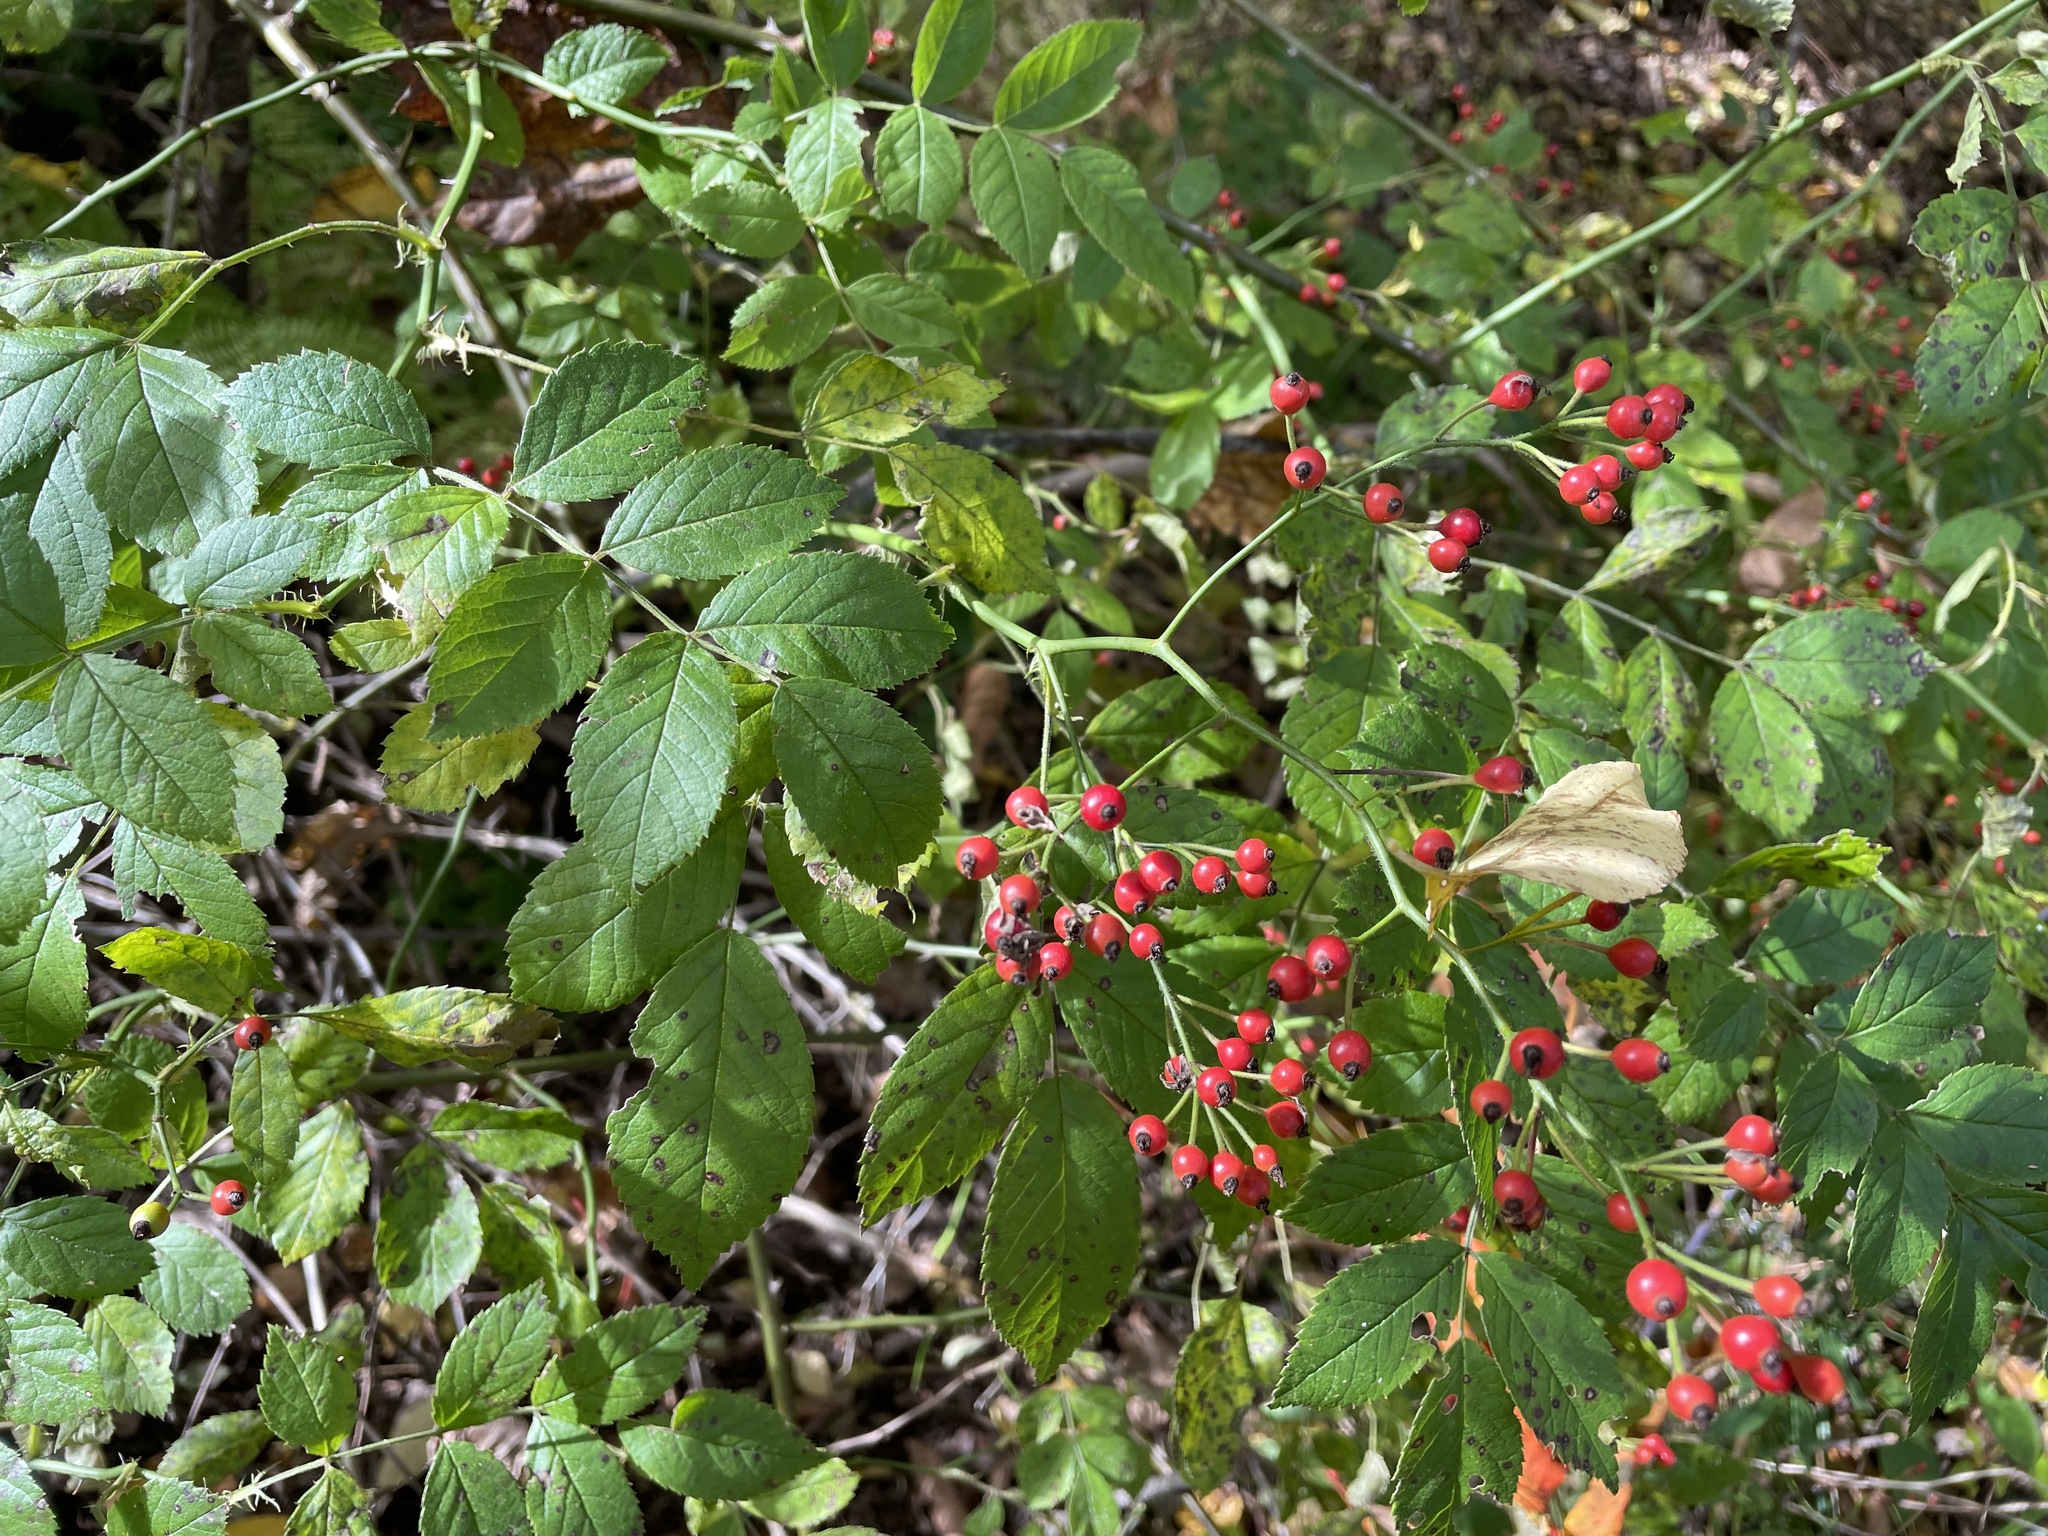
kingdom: Plantae
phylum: Tracheophyta
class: Magnoliopsida
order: Rosales
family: Rosaceae
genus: Rosa
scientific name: Rosa multiflora
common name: Multiflora rose
